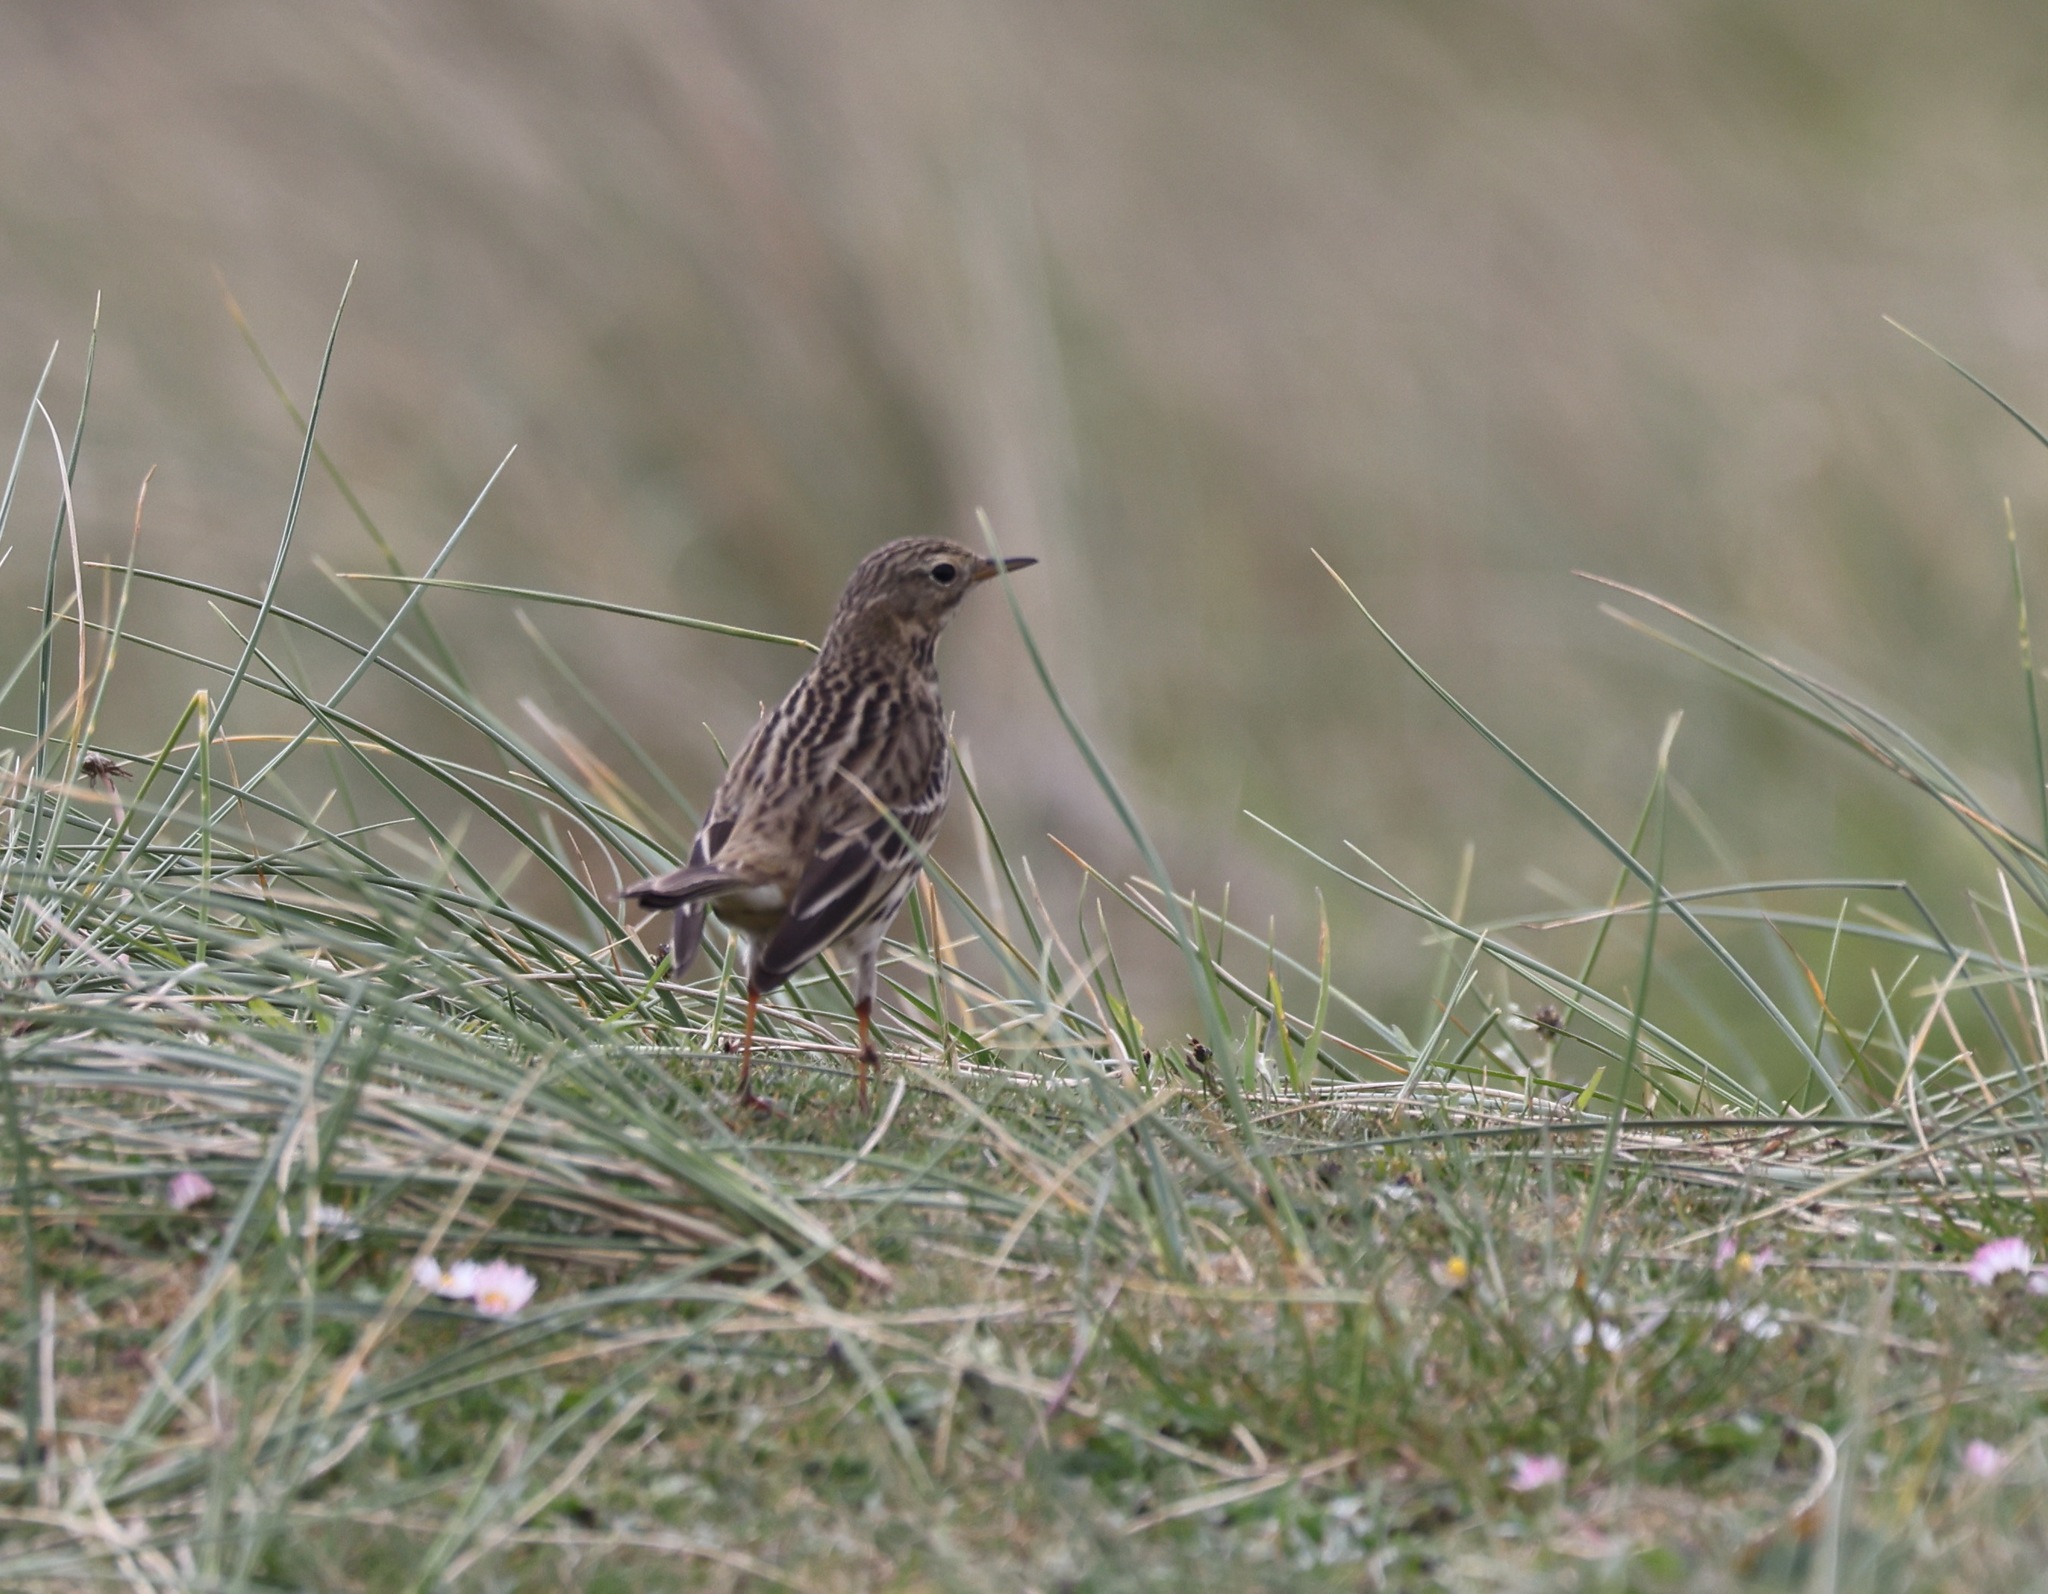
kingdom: Animalia
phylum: Chordata
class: Aves
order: Passeriformes
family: Motacillidae
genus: Anthus
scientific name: Anthus pratensis
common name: Meadow pipit
